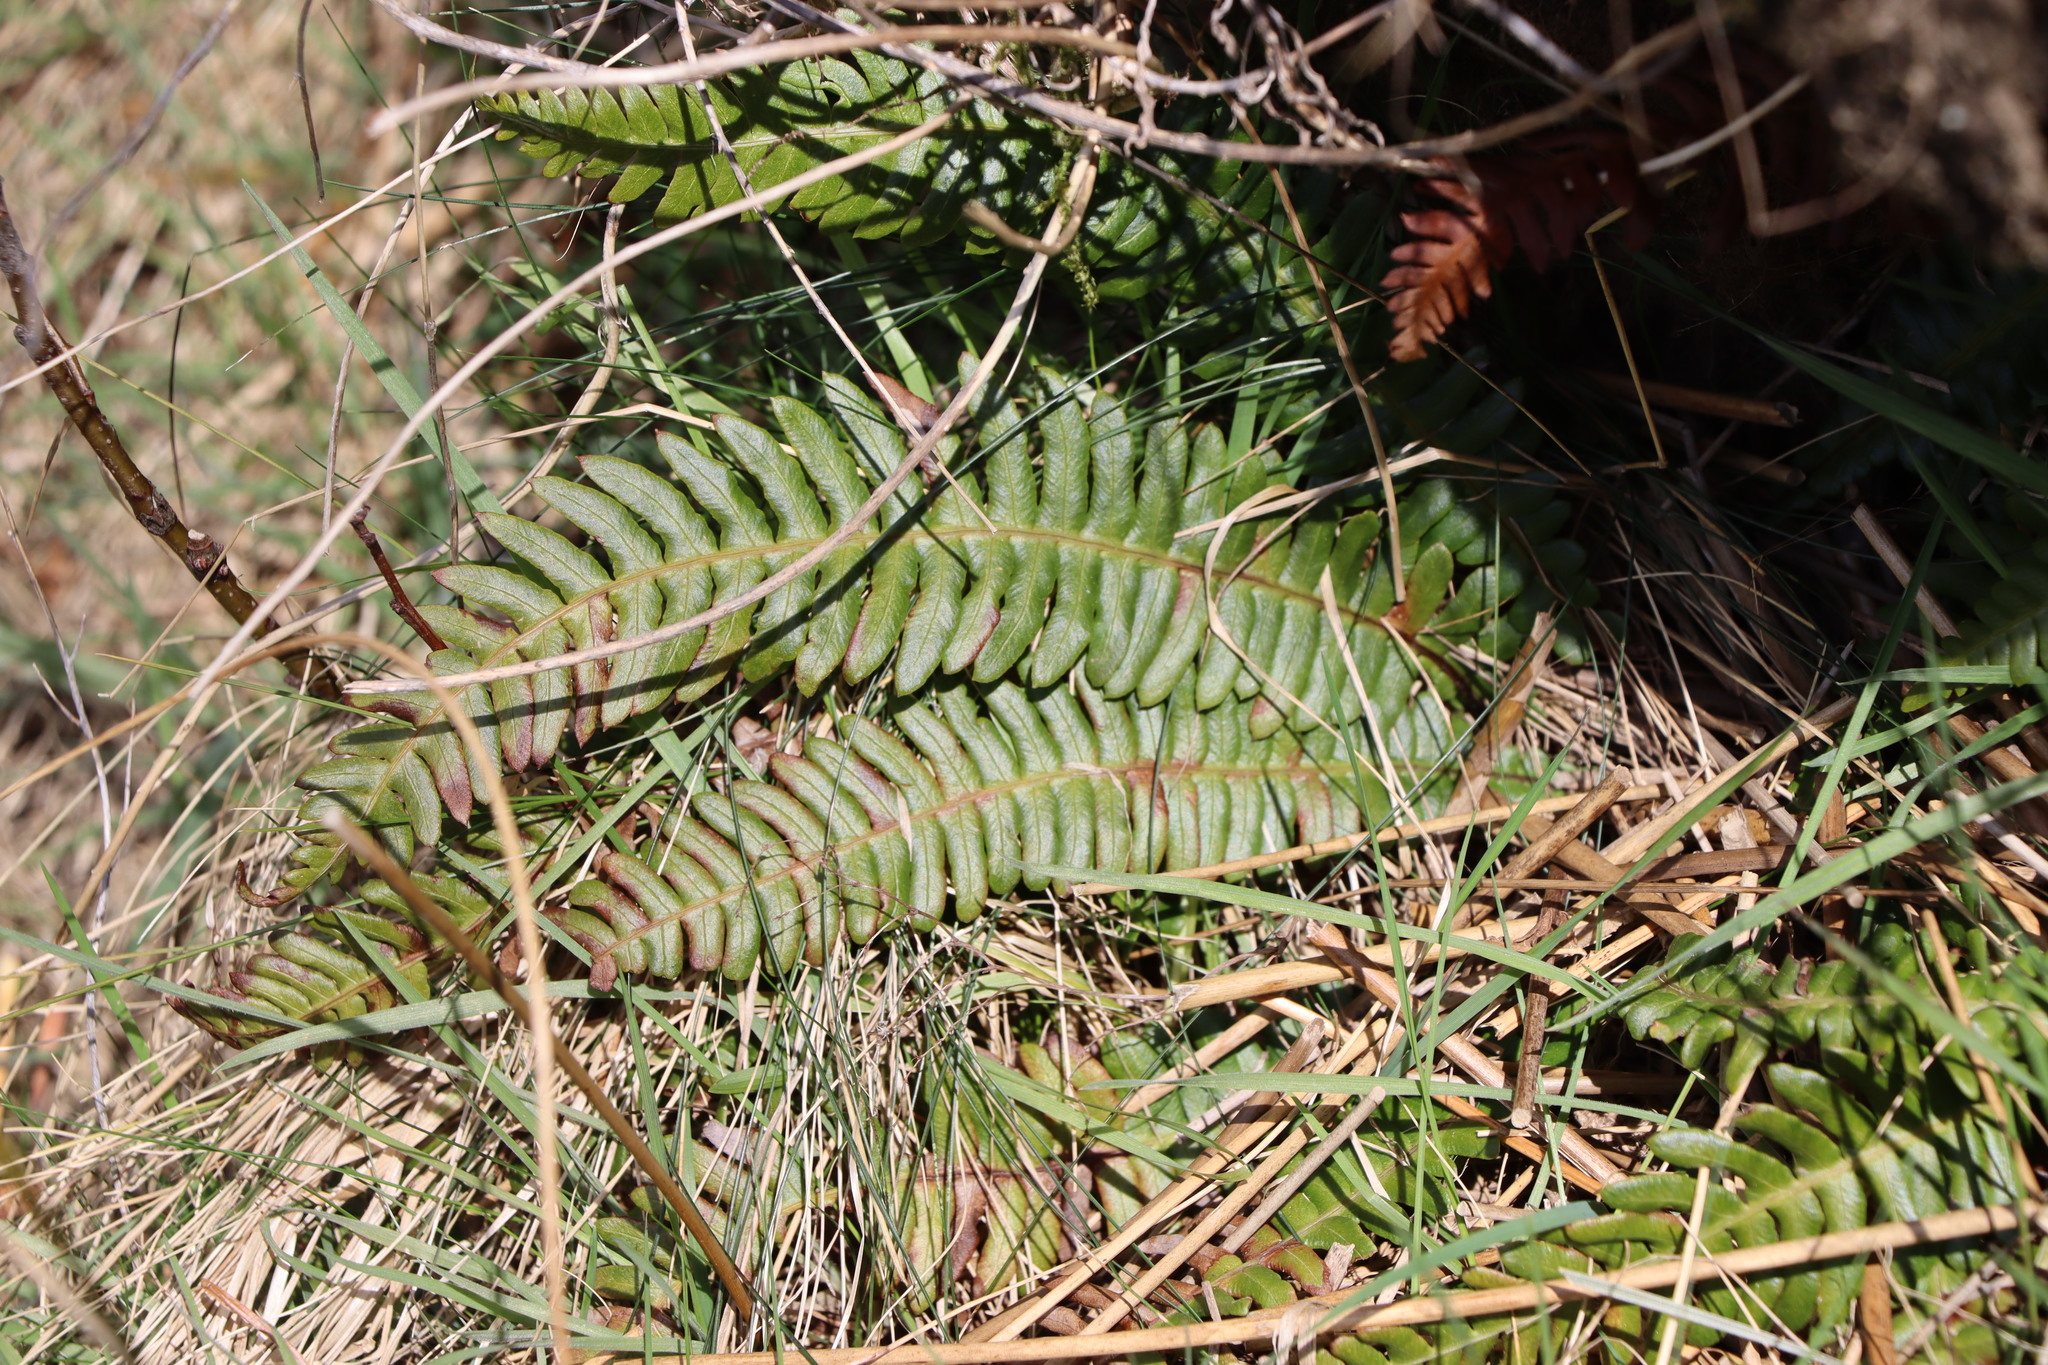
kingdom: Plantae
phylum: Tracheophyta
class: Polypodiopsida
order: Polypodiales
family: Blechnaceae
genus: Struthiopteris
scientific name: Struthiopteris spicant
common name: Deer fern
